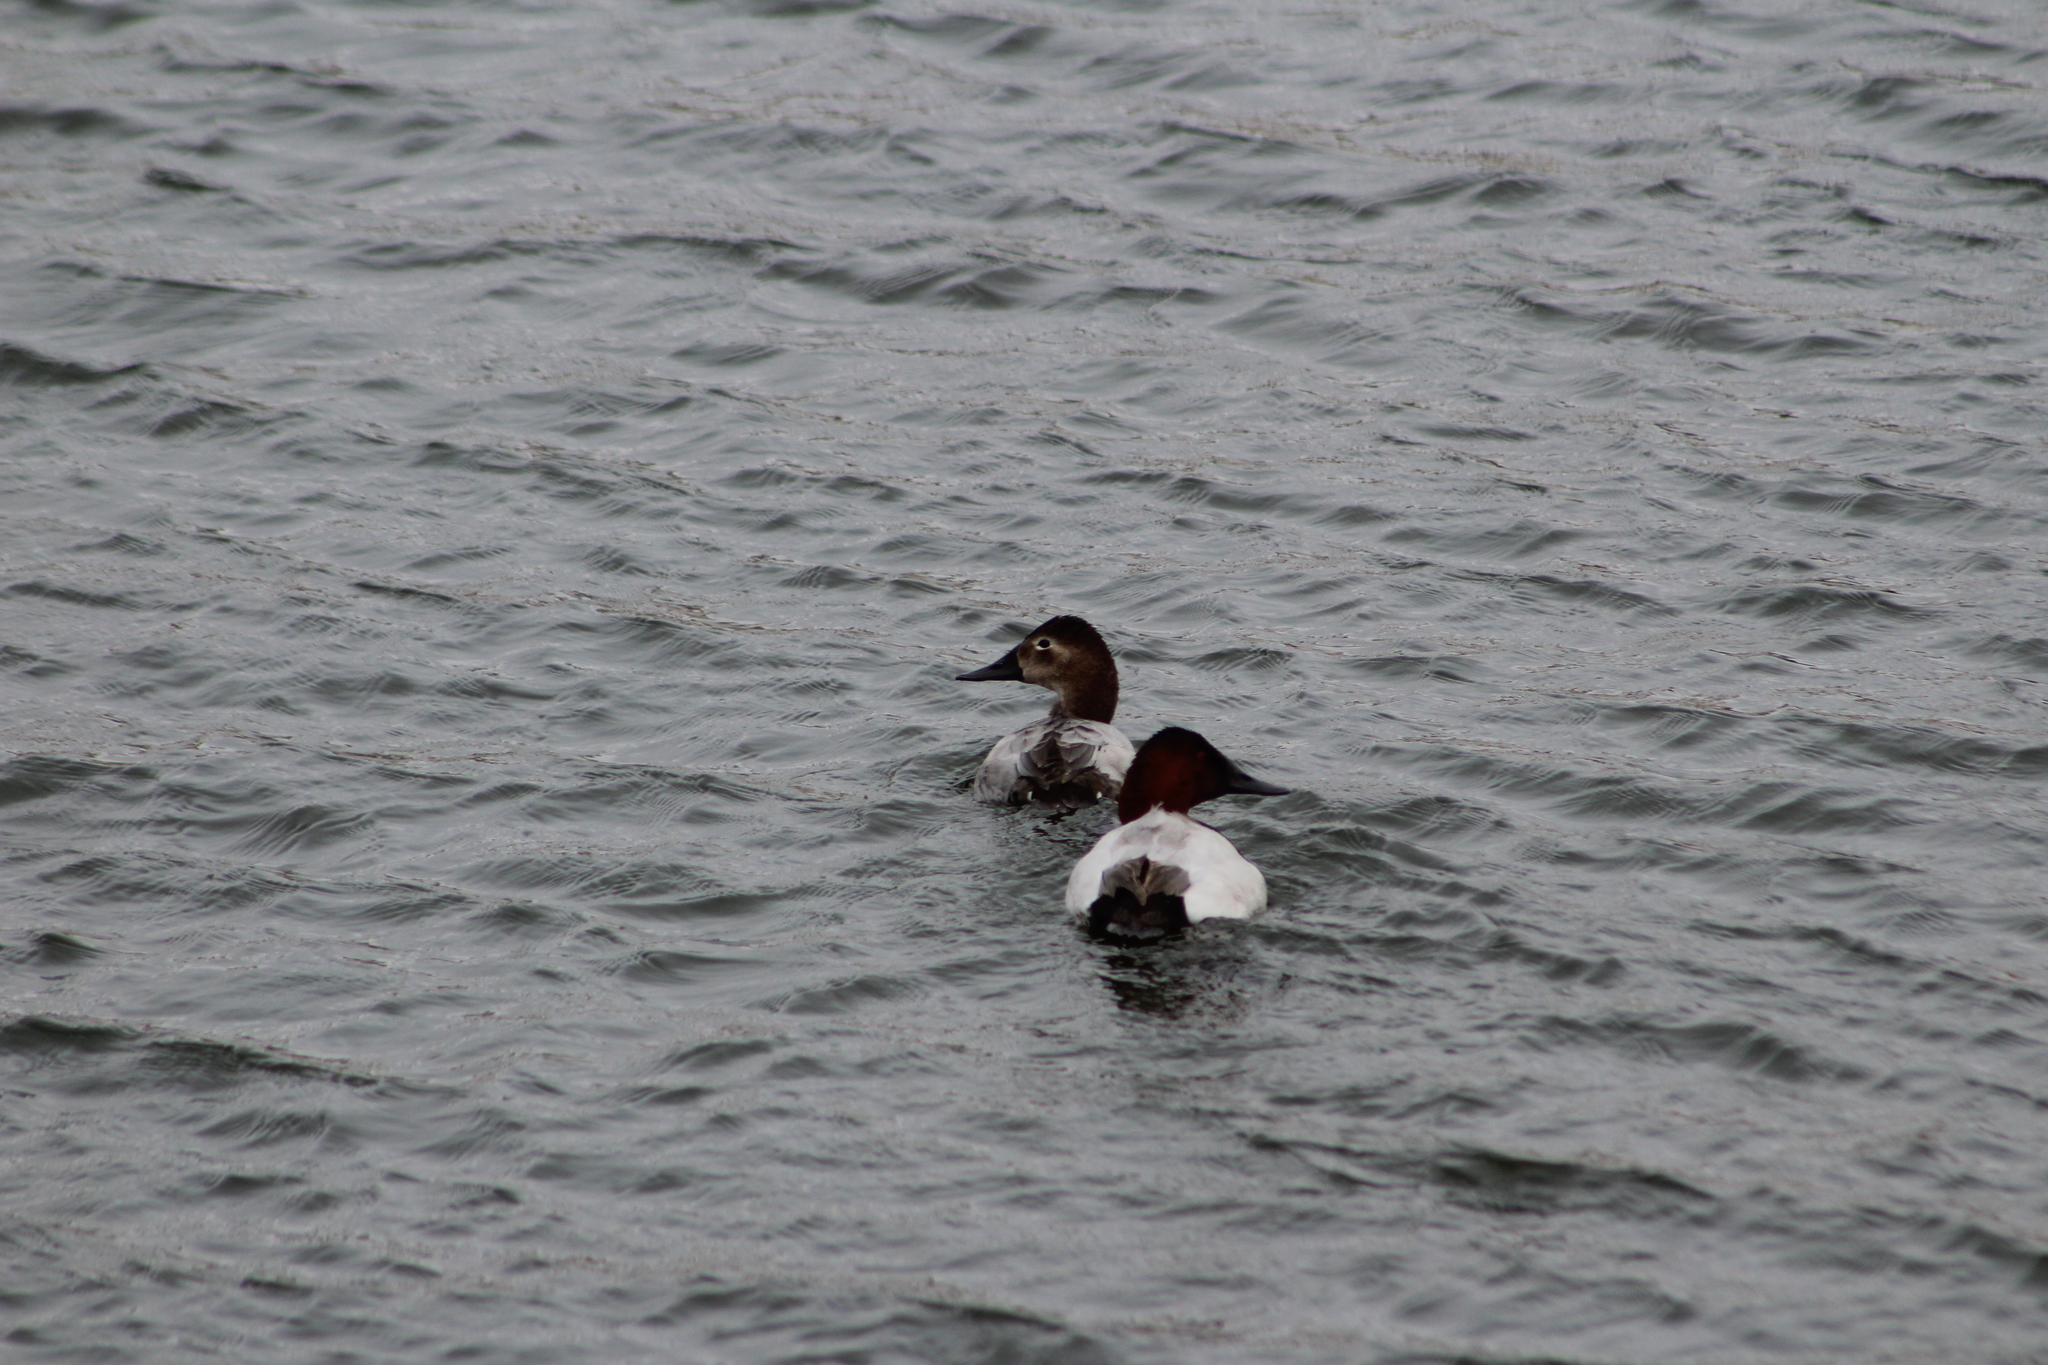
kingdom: Animalia
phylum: Chordata
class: Aves
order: Anseriformes
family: Anatidae
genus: Aythya
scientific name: Aythya valisineria
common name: Canvasback
